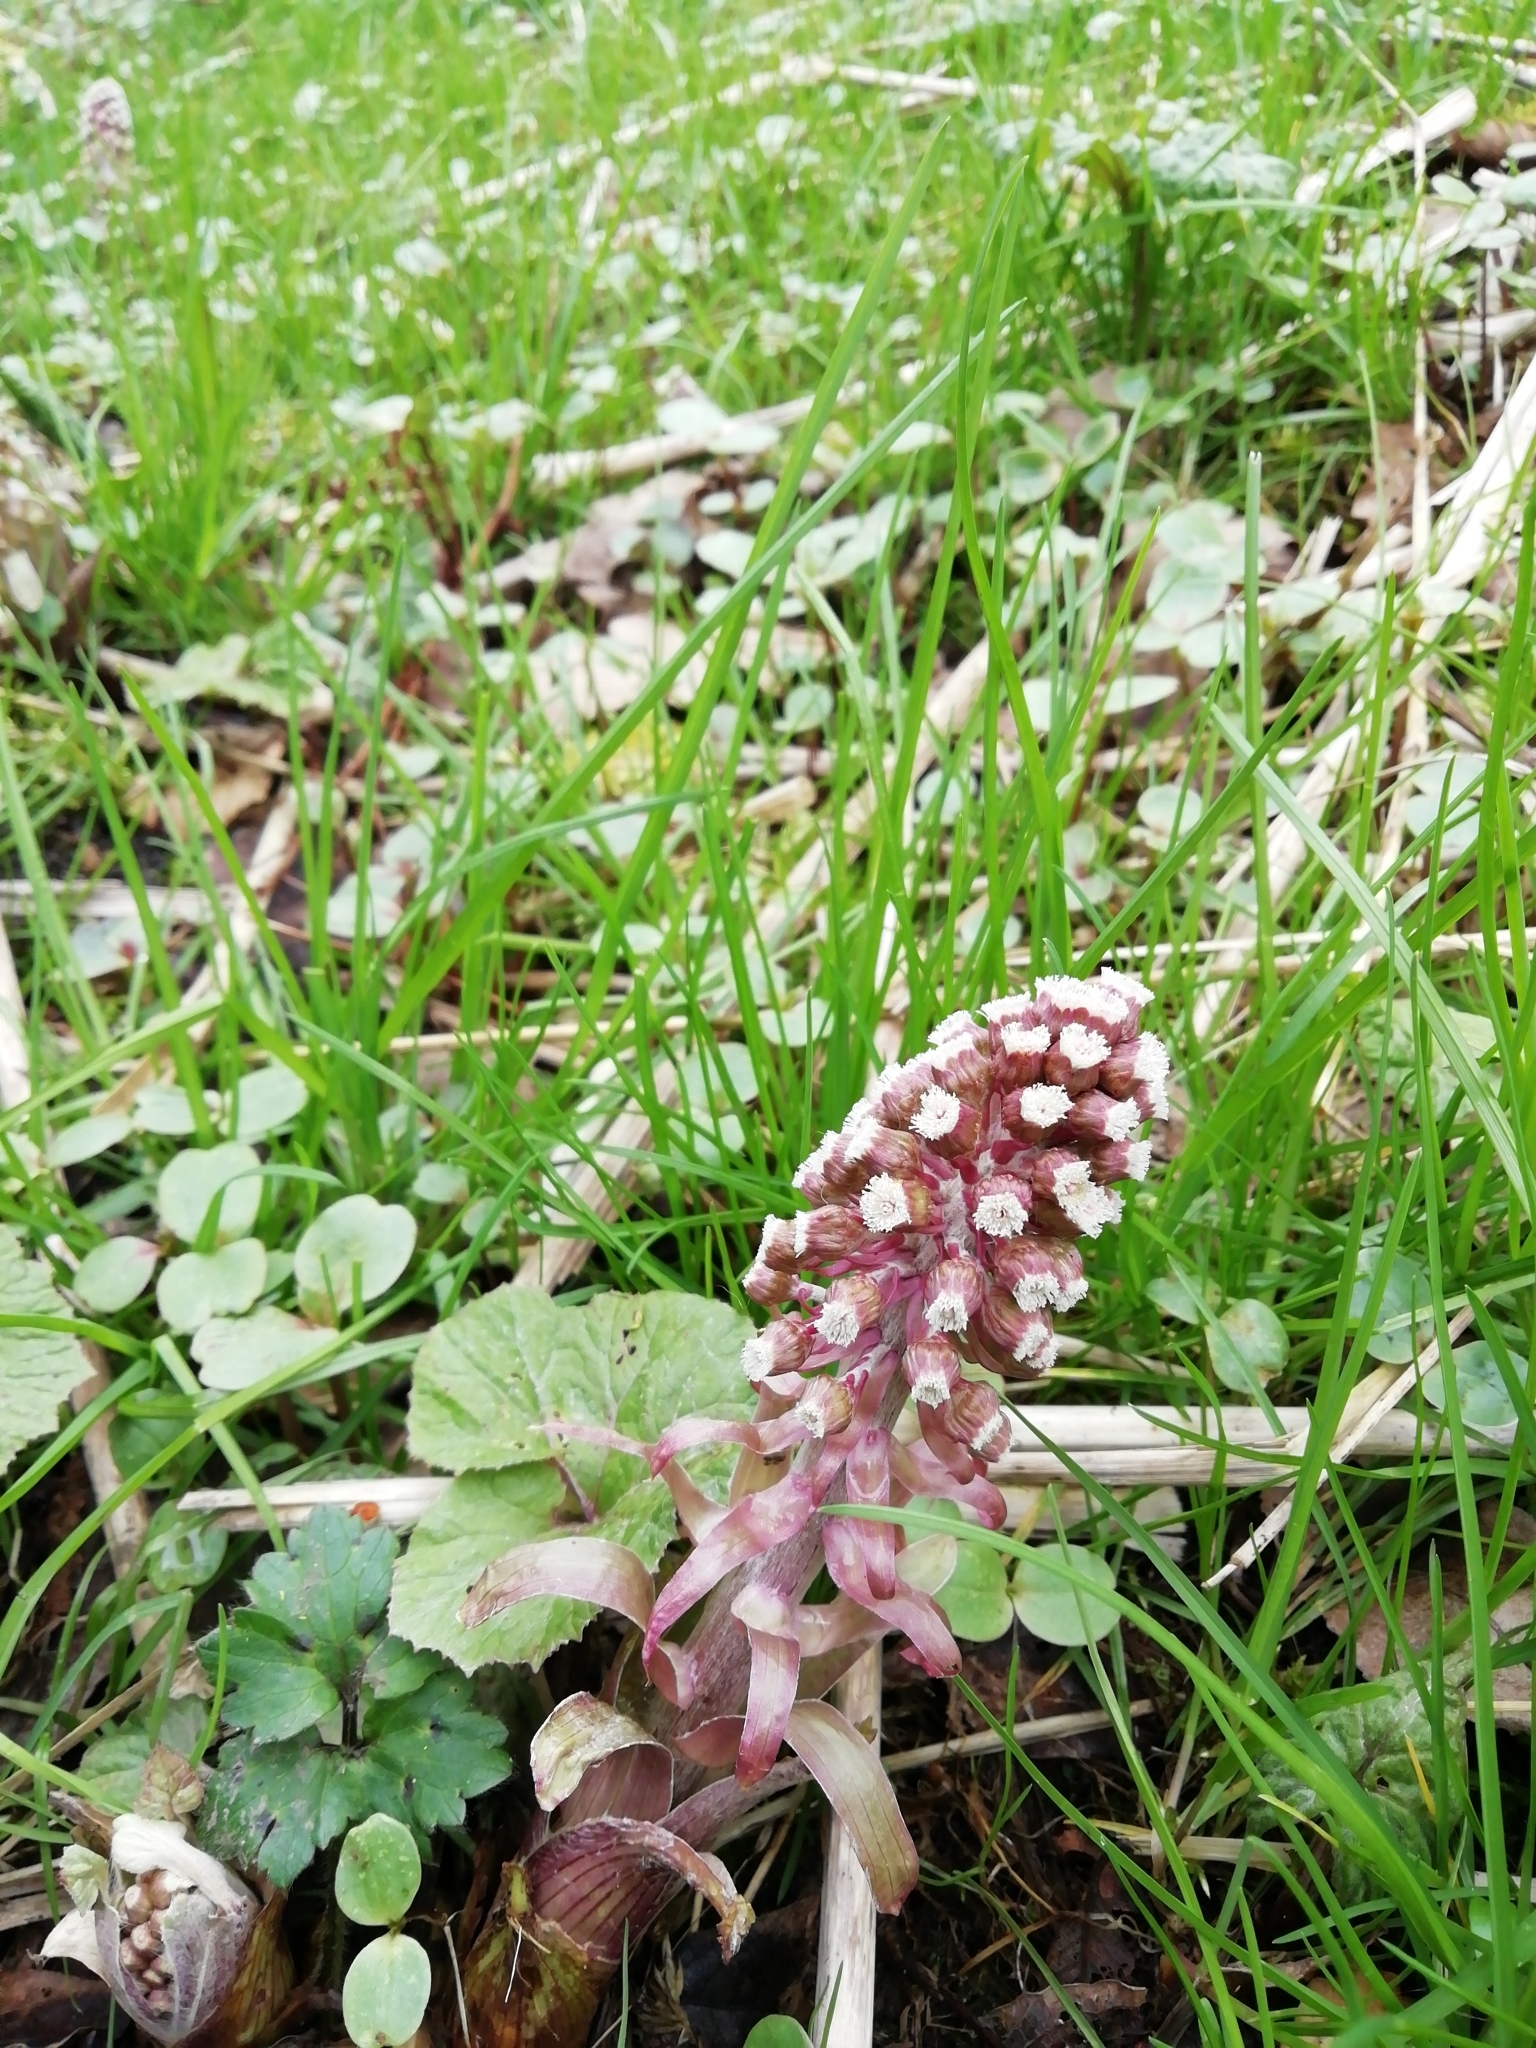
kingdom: Plantae
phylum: Tracheophyta
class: Magnoliopsida
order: Asterales
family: Asteraceae
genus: Petasites
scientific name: Petasites hybridus
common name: Butterbur
